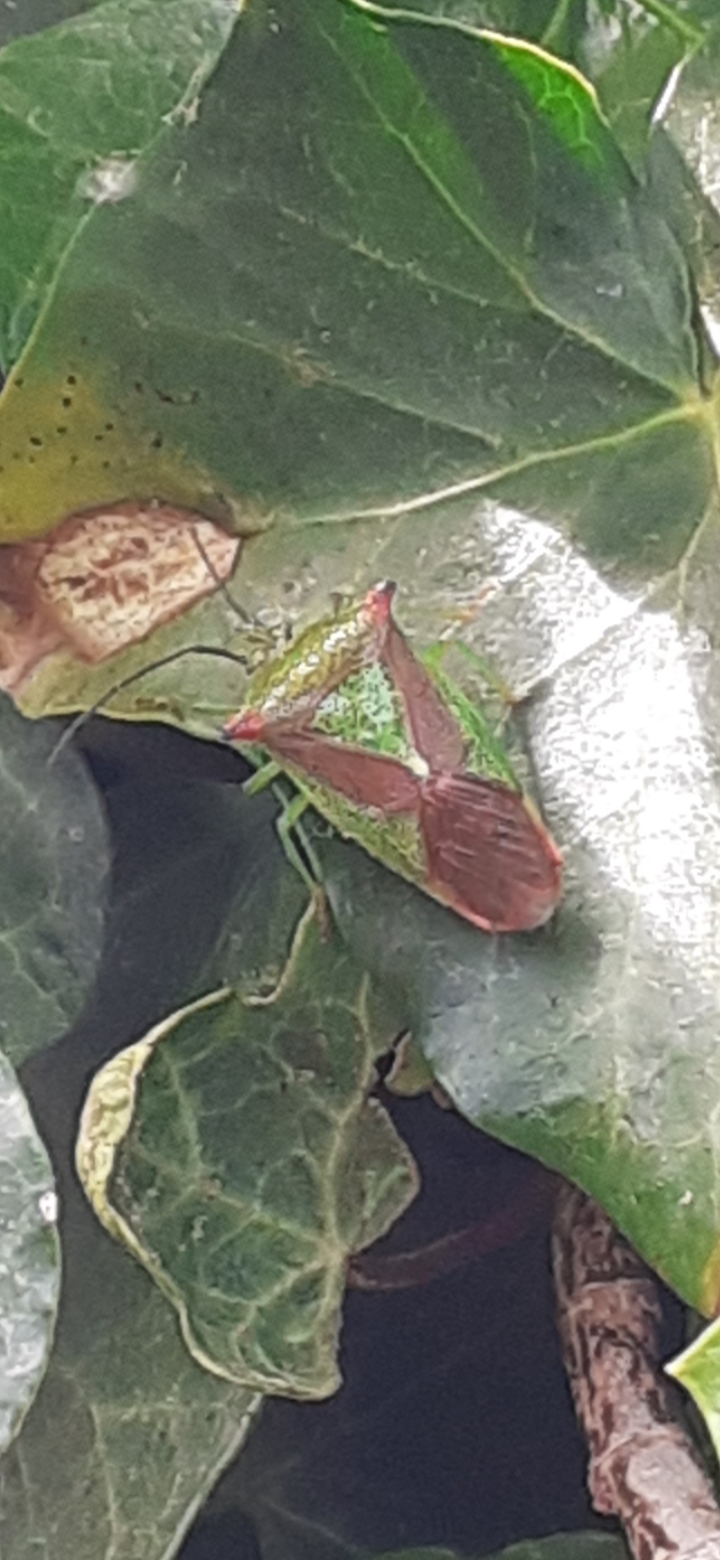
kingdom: Animalia
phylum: Arthropoda
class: Insecta
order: Hemiptera
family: Acanthosomatidae
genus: Acanthosoma
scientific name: Acanthosoma haemorrhoidale
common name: Hawthorn shieldbug
